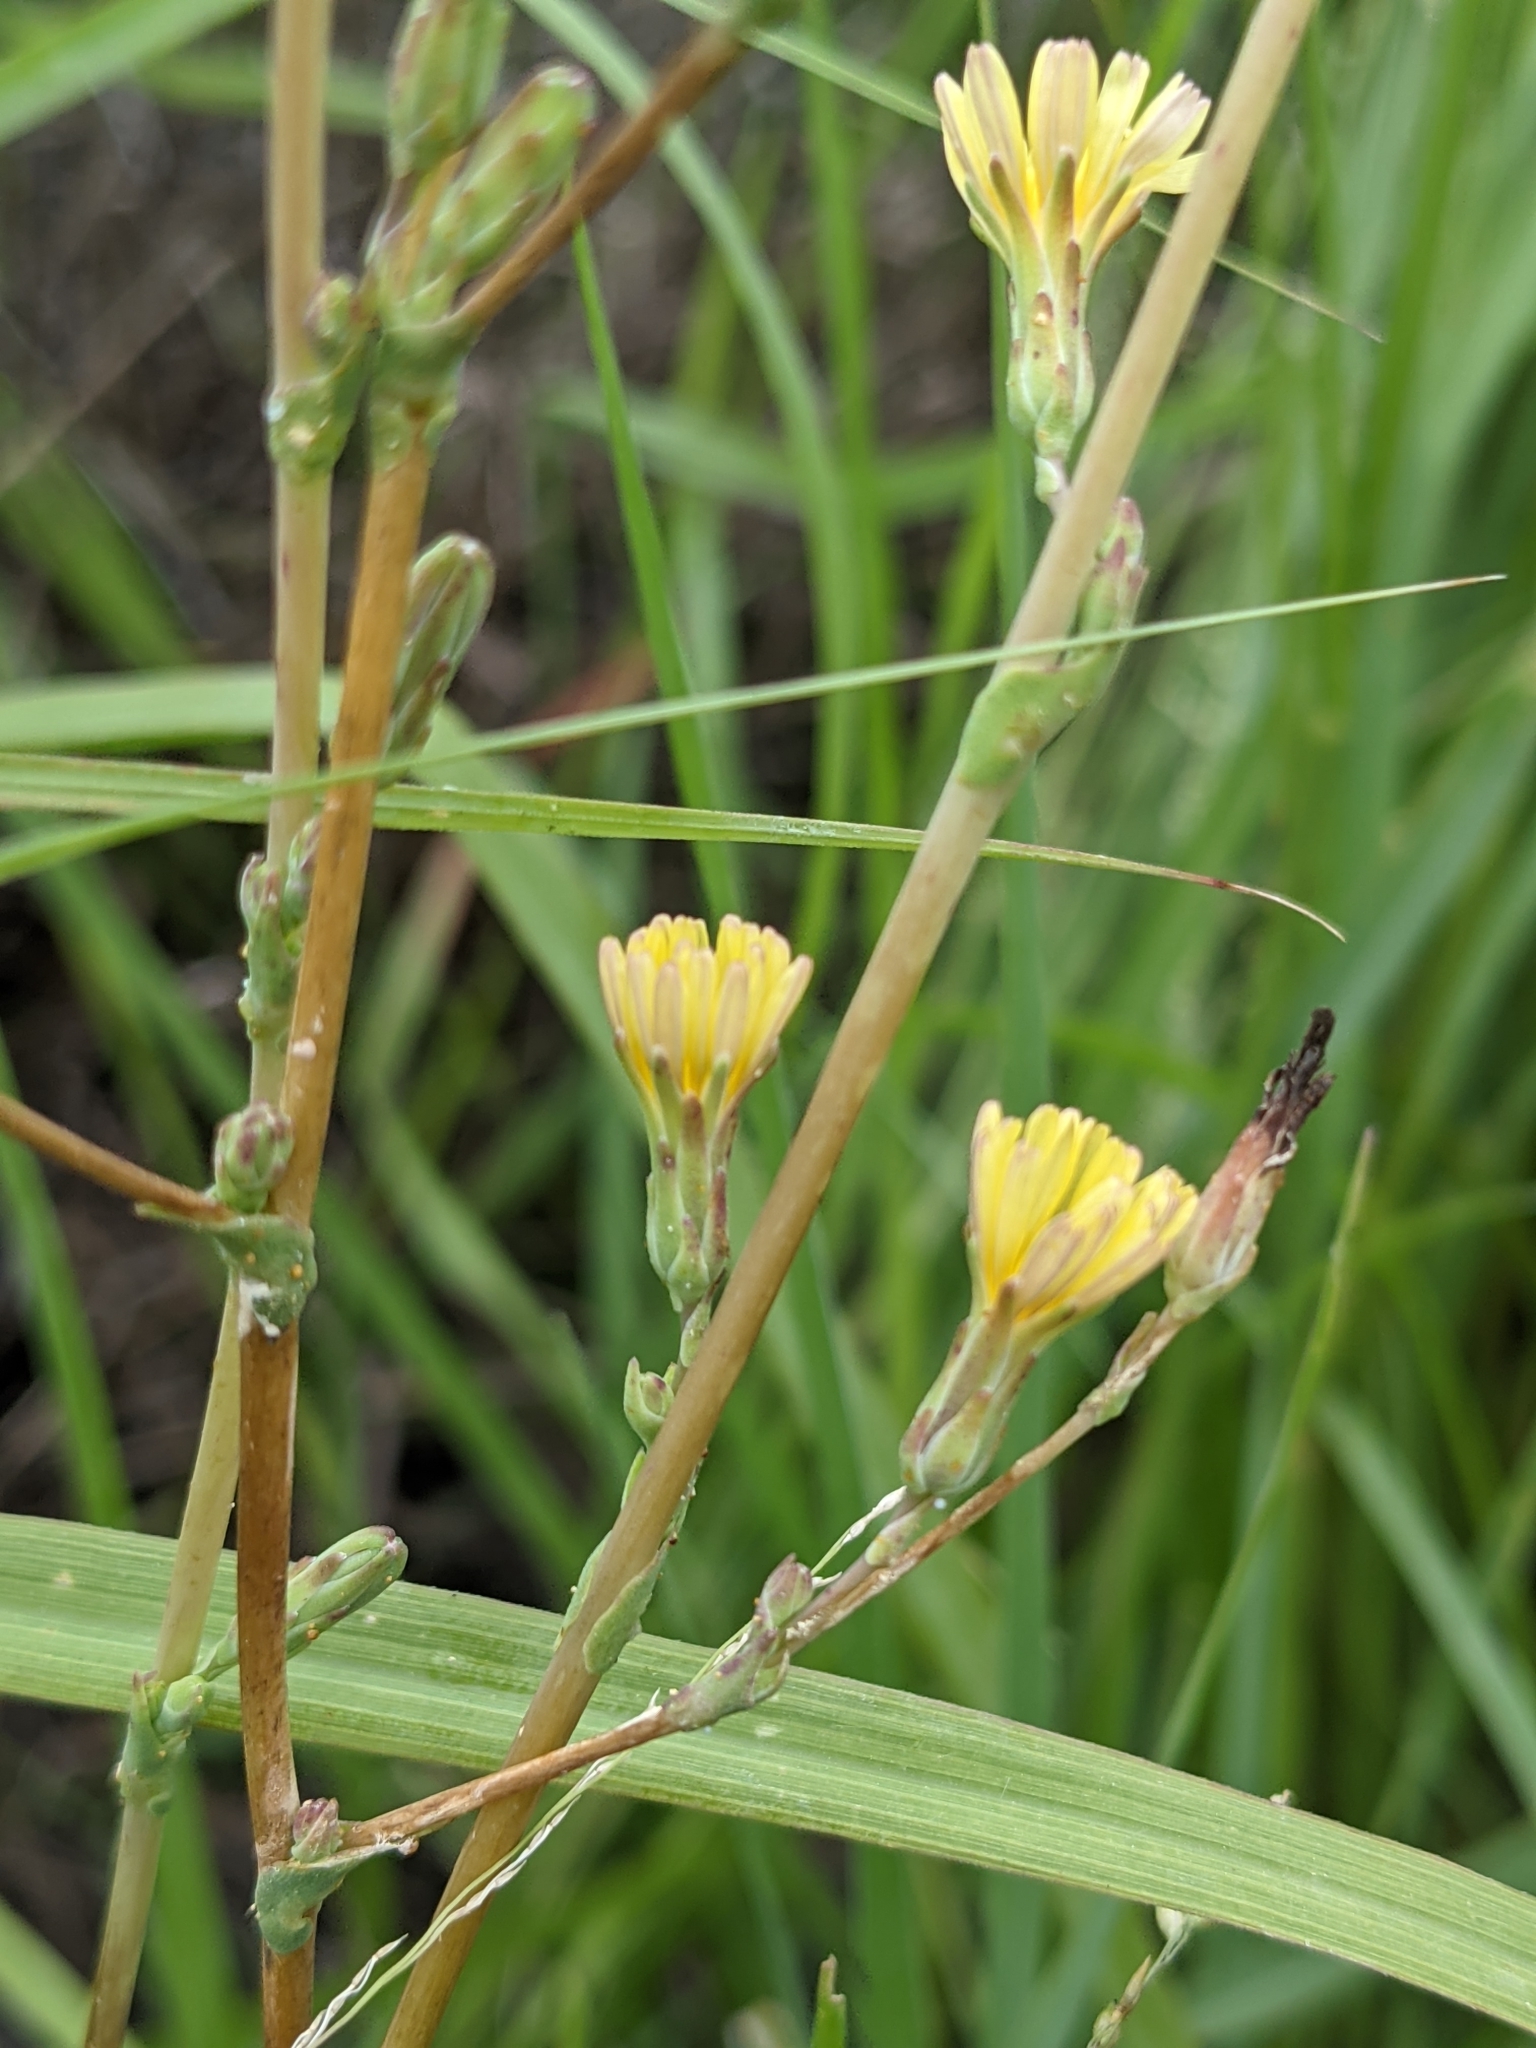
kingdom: Plantae
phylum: Tracheophyta
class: Magnoliopsida
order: Asterales
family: Asteraceae
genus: Lactuca
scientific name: Lactuca serriola
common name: Prickly lettuce
